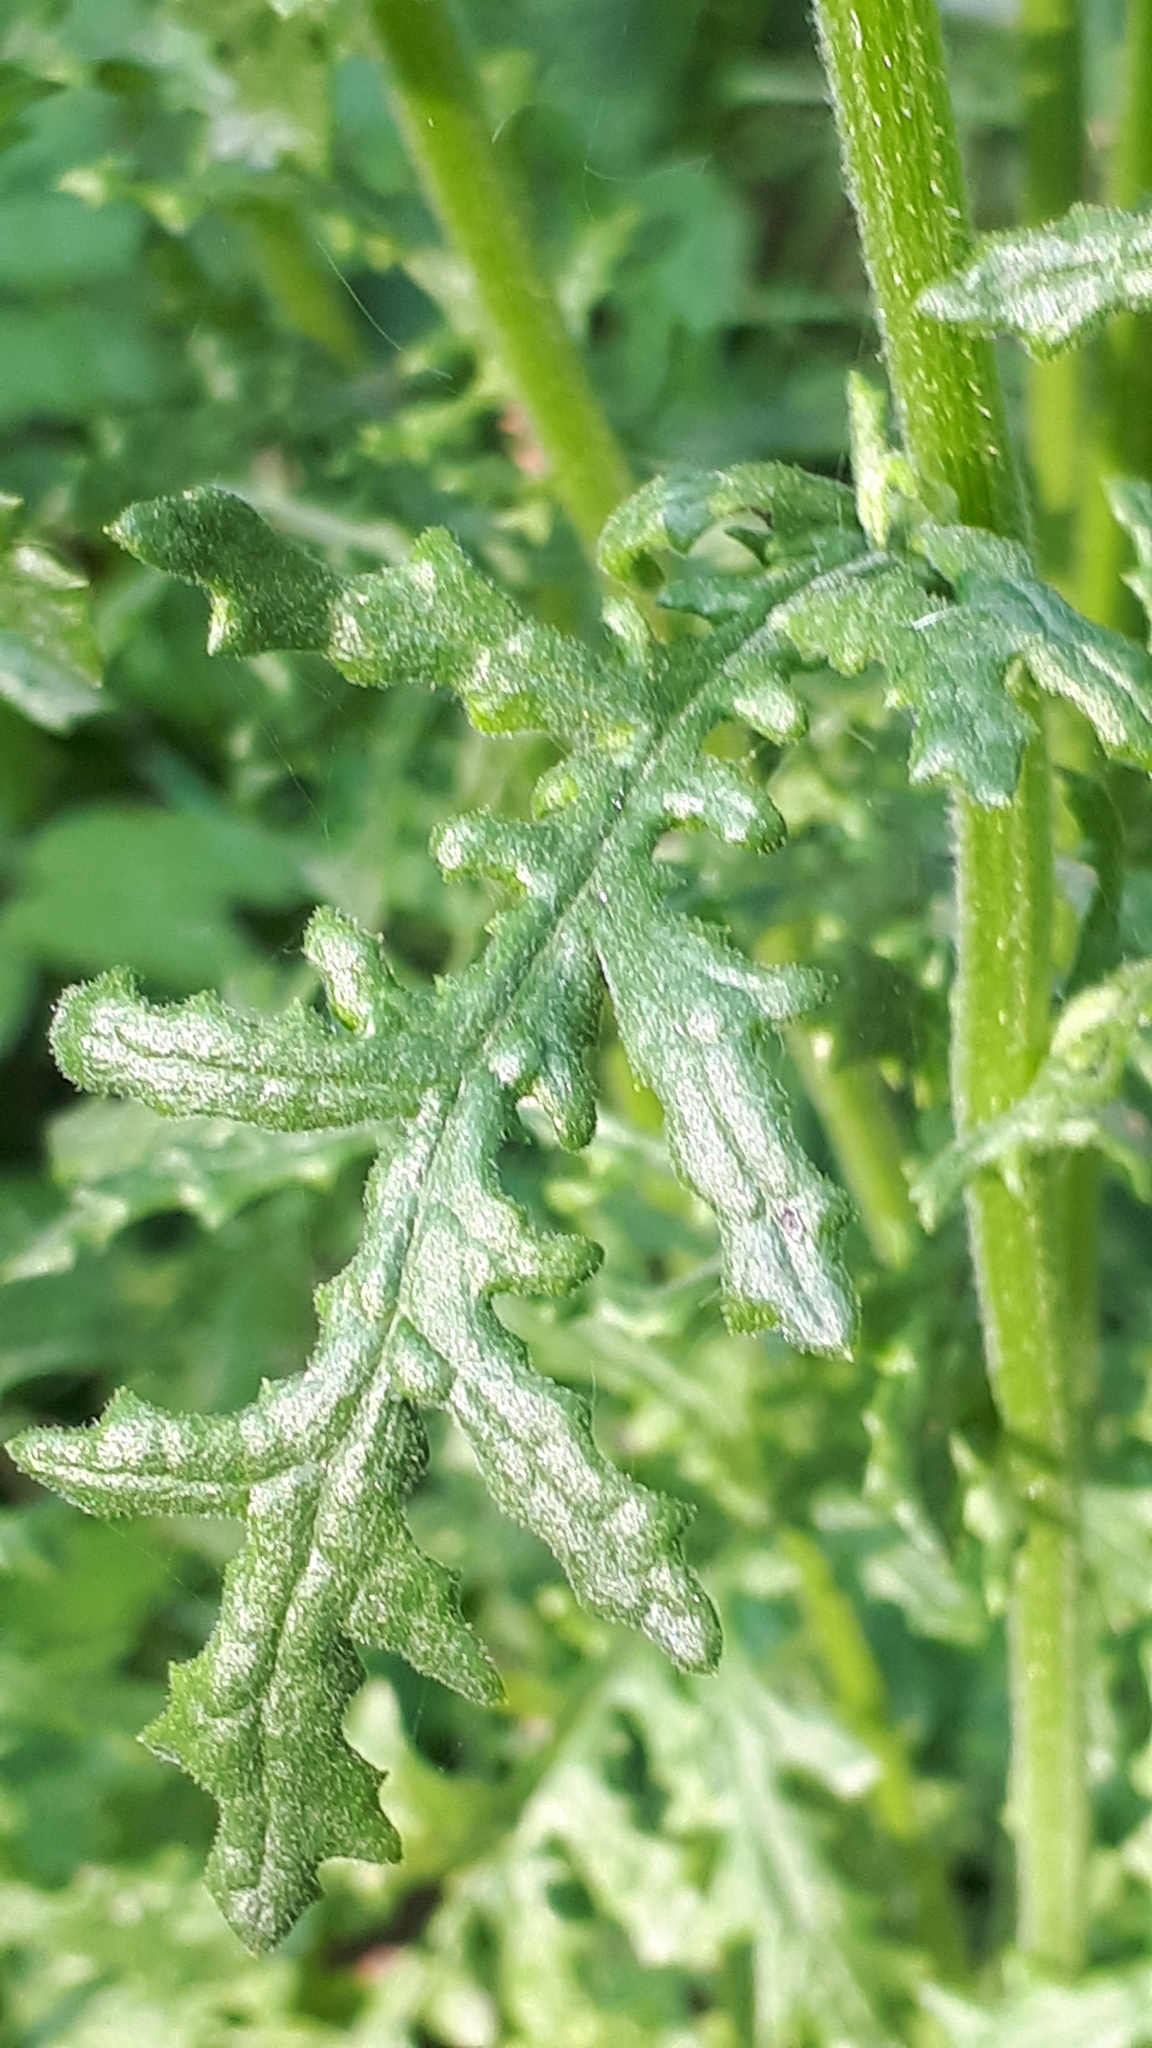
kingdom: Plantae
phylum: Tracheophyta
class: Magnoliopsida
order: Asterales
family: Asteraceae
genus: Senecio
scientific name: Senecio sylvaticus
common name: Woodland ragwort
